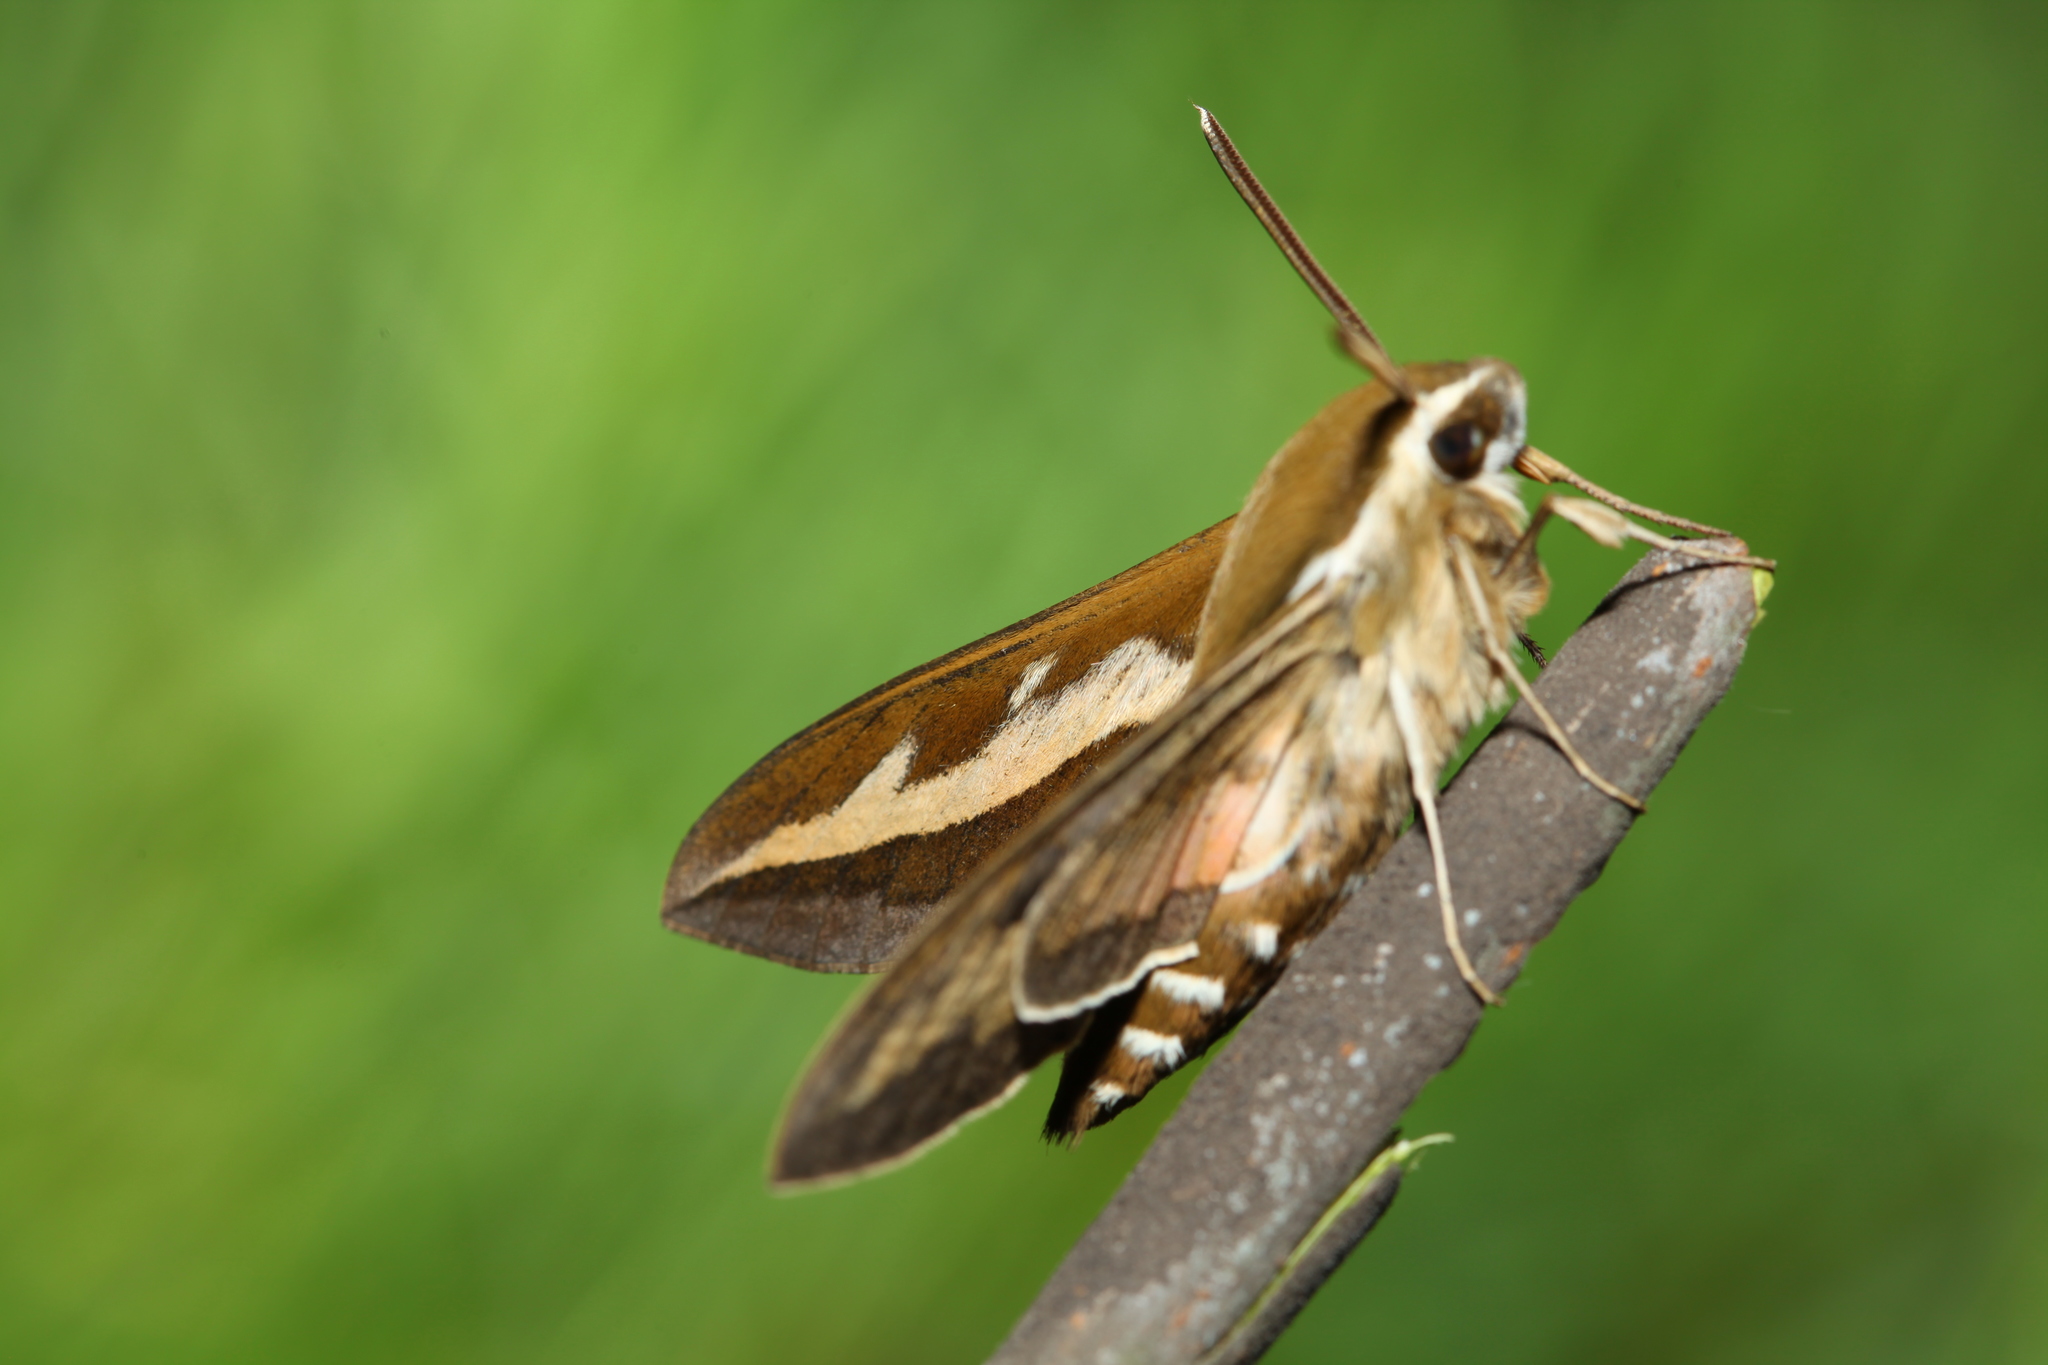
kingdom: Animalia
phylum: Arthropoda
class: Insecta
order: Lepidoptera
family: Sphingidae
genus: Hyles
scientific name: Hyles gallii
